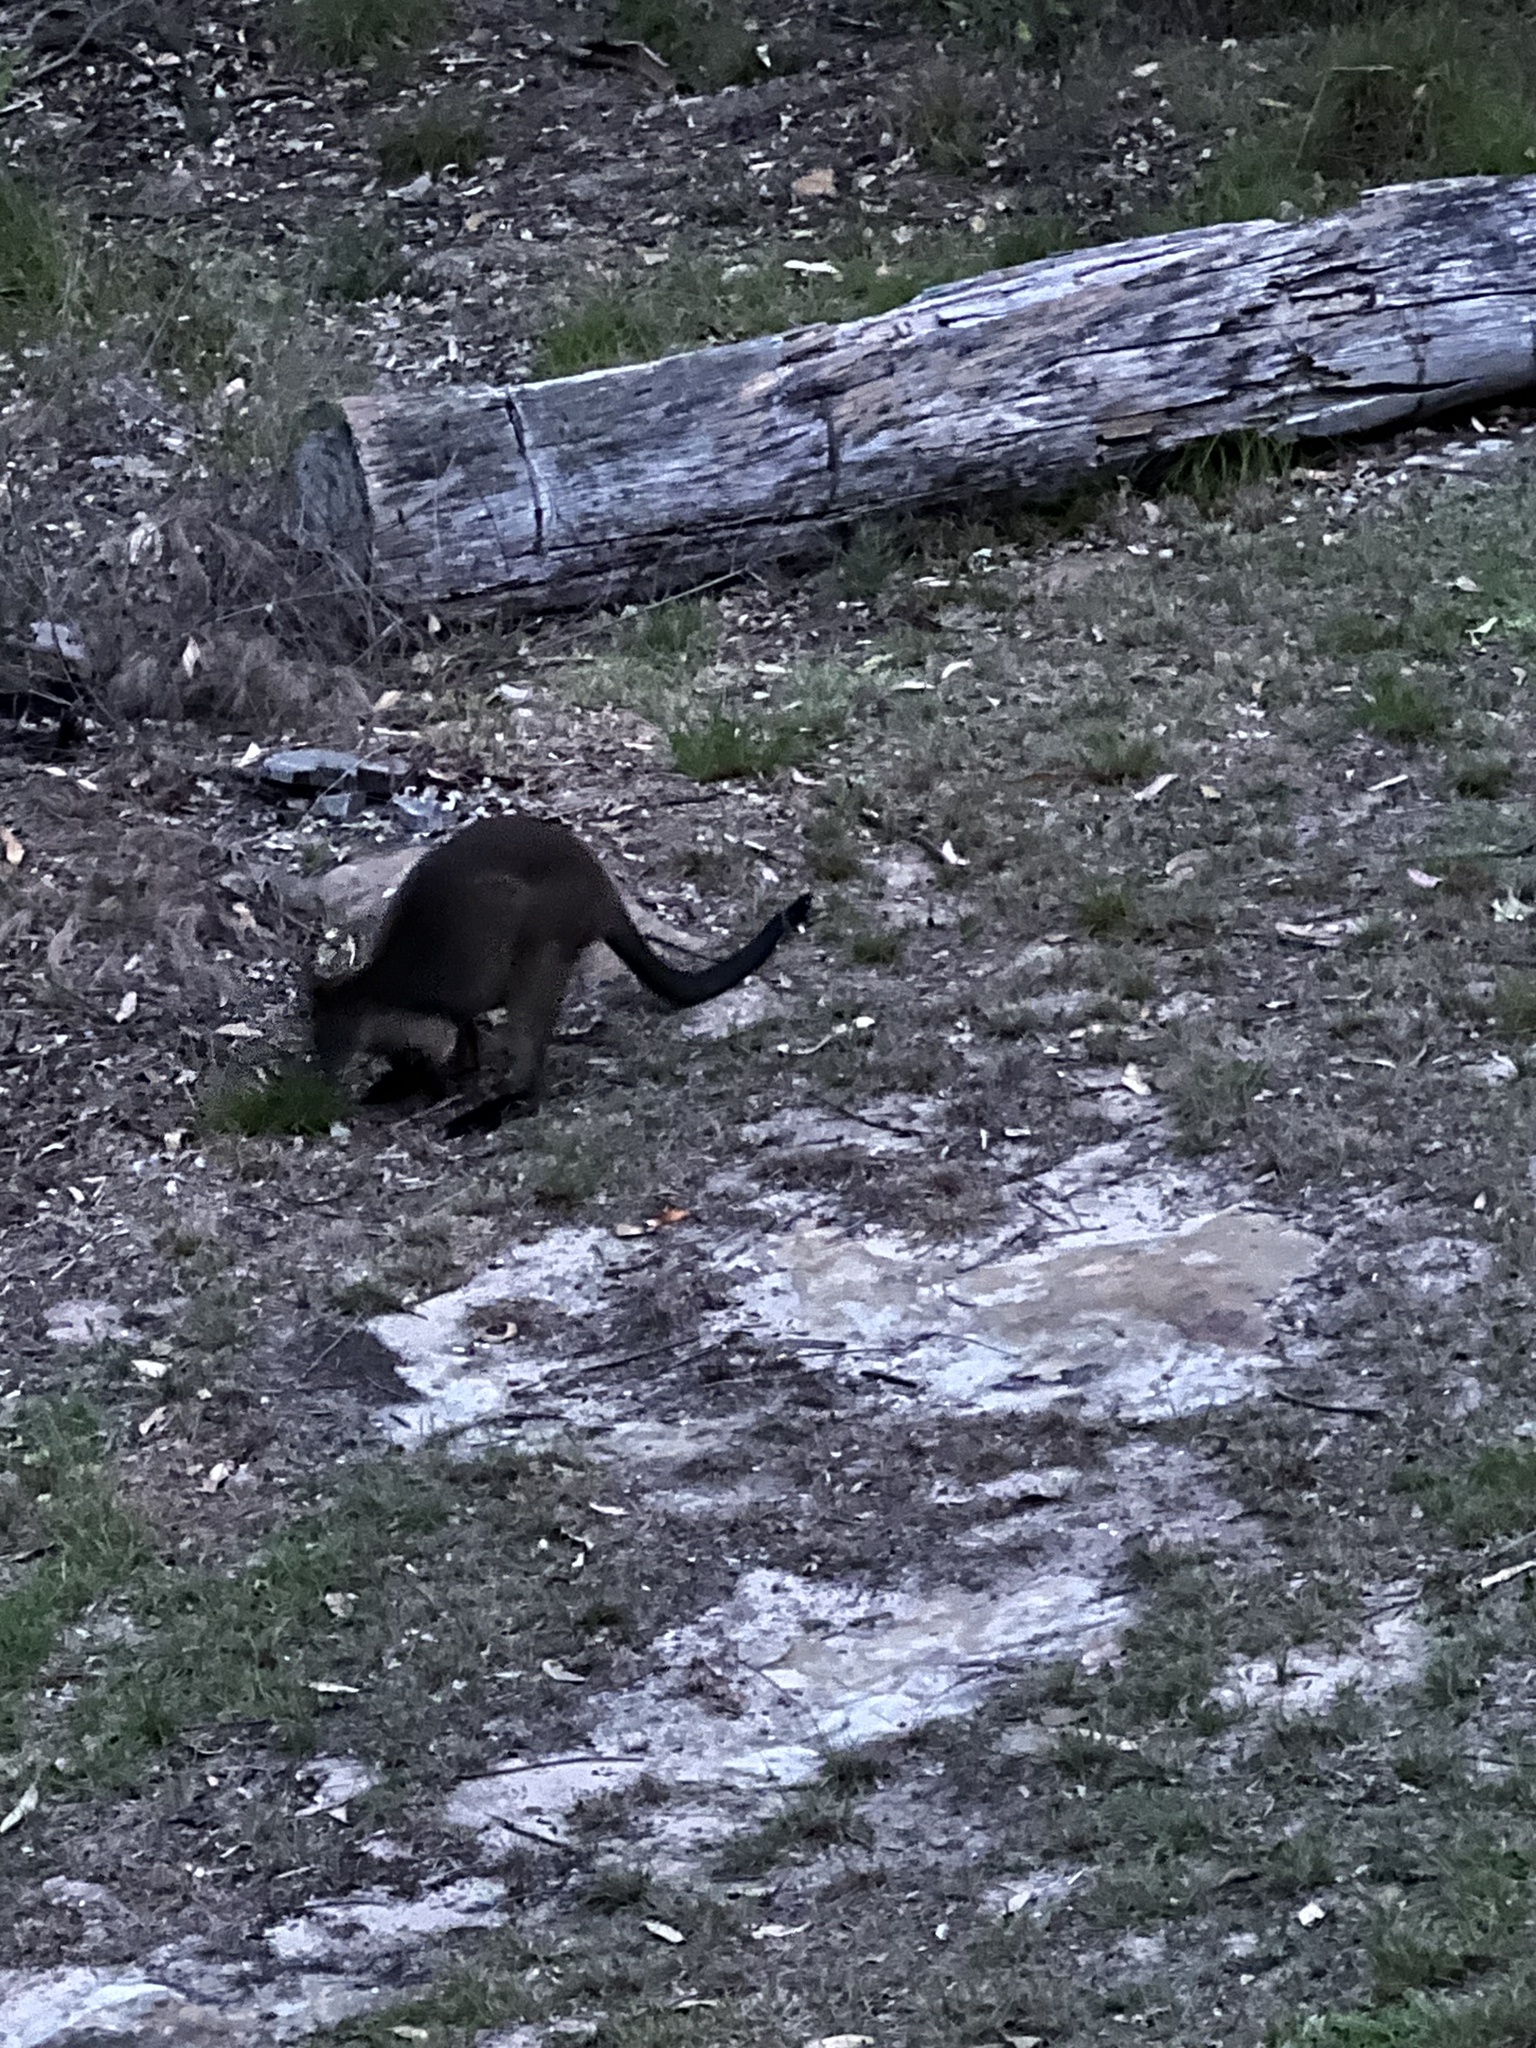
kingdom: Animalia
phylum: Chordata
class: Mammalia
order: Diprotodontia
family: Macropodidae
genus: Wallabia
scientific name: Wallabia bicolor
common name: Swamp wallaby
